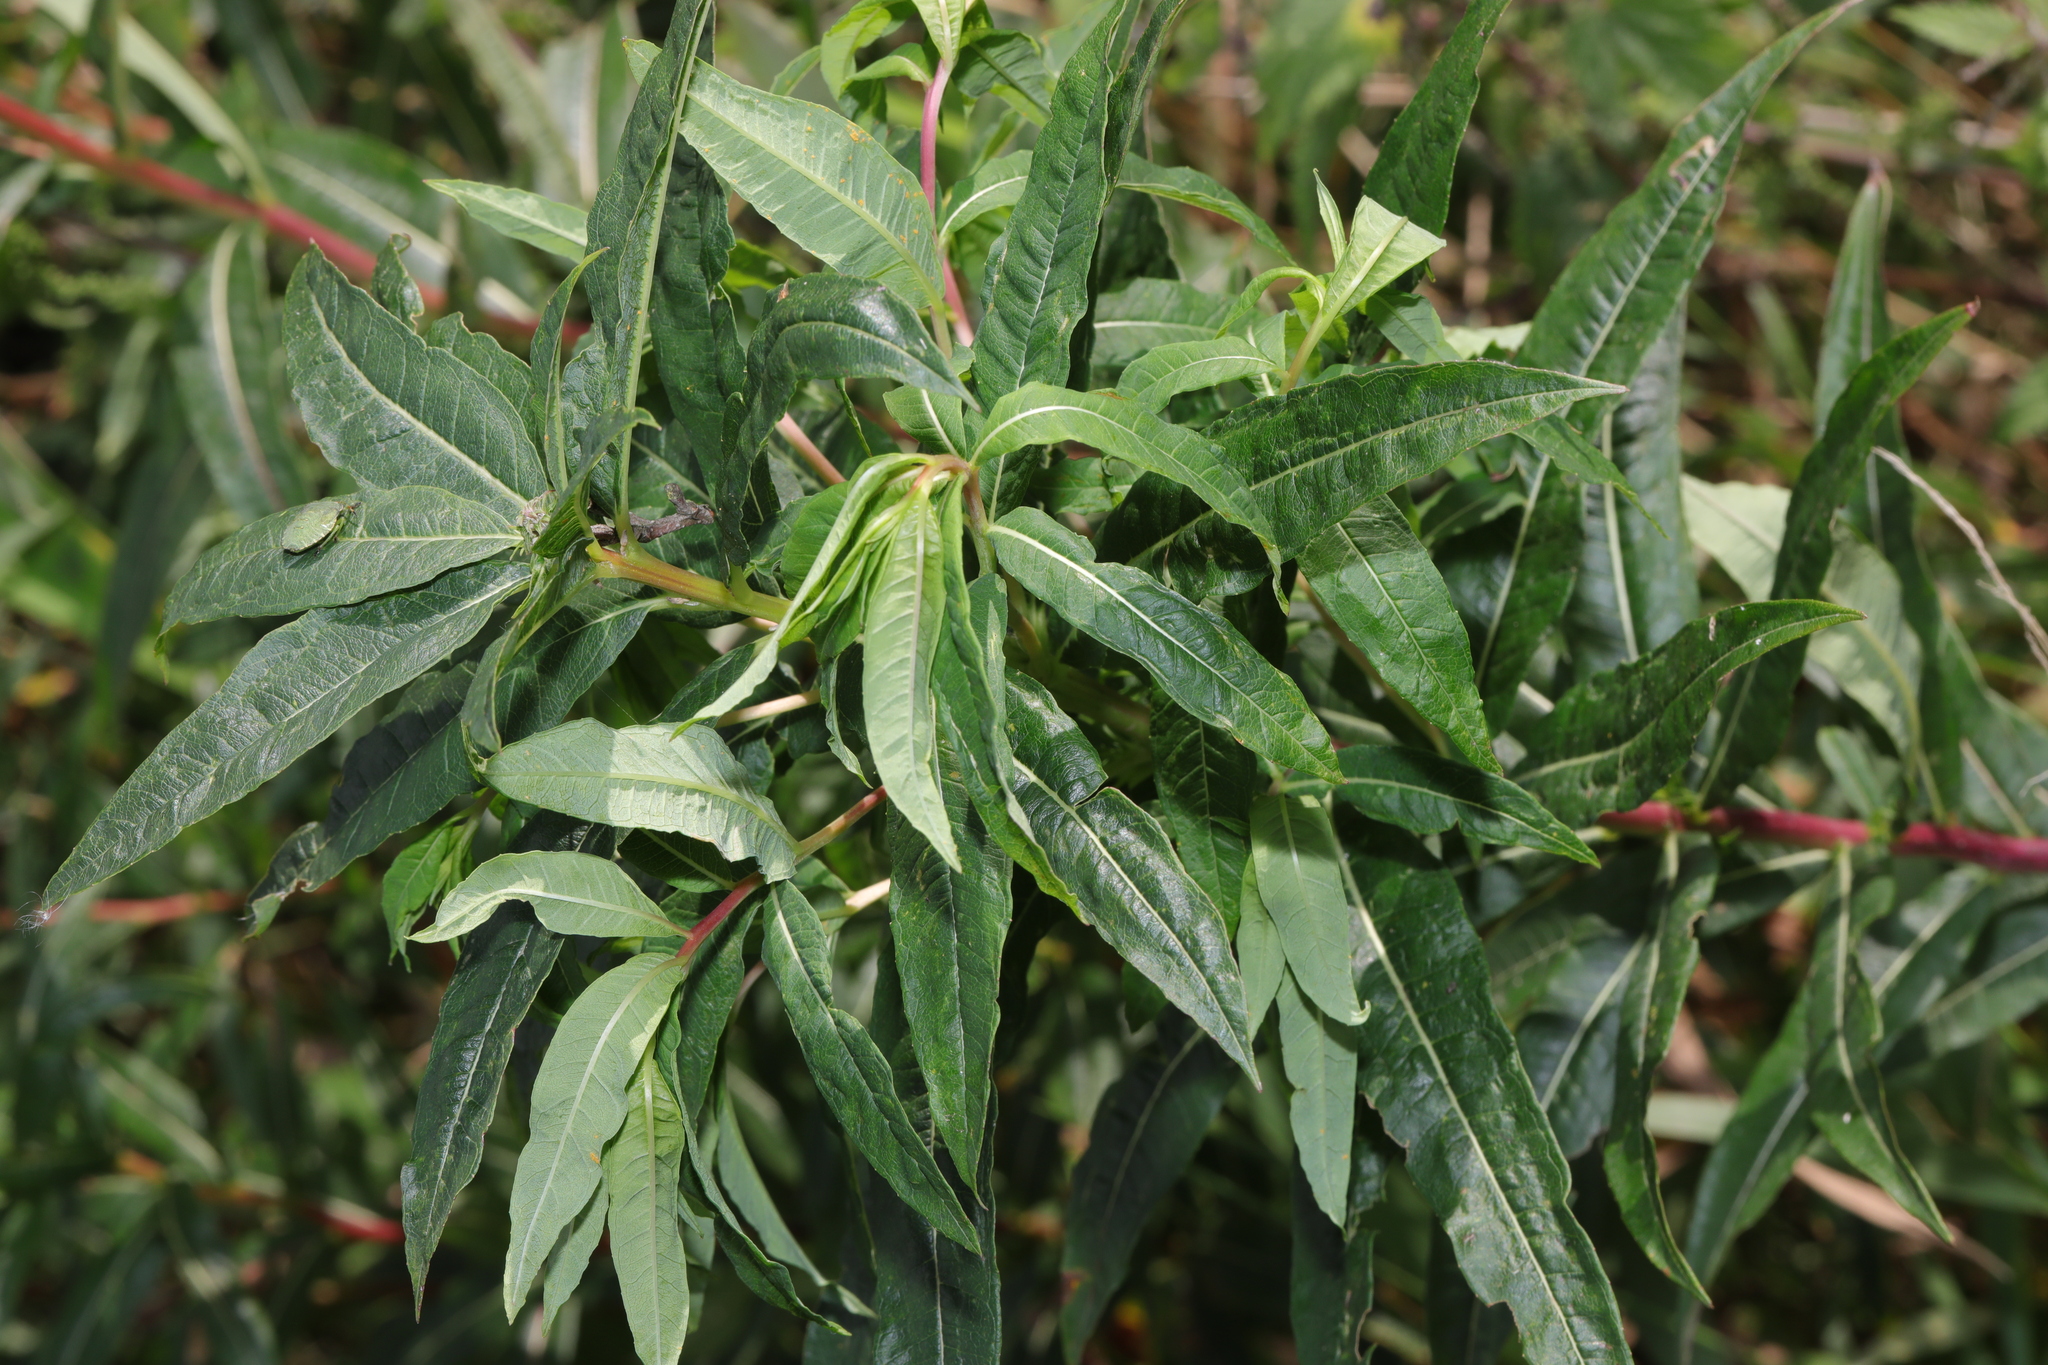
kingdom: Plantae
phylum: Tracheophyta
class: Magnoliopsida
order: Myrtales
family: Onagraceae
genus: Chamaenerion
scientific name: Chamaenerion angustifolium
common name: Fireweed
